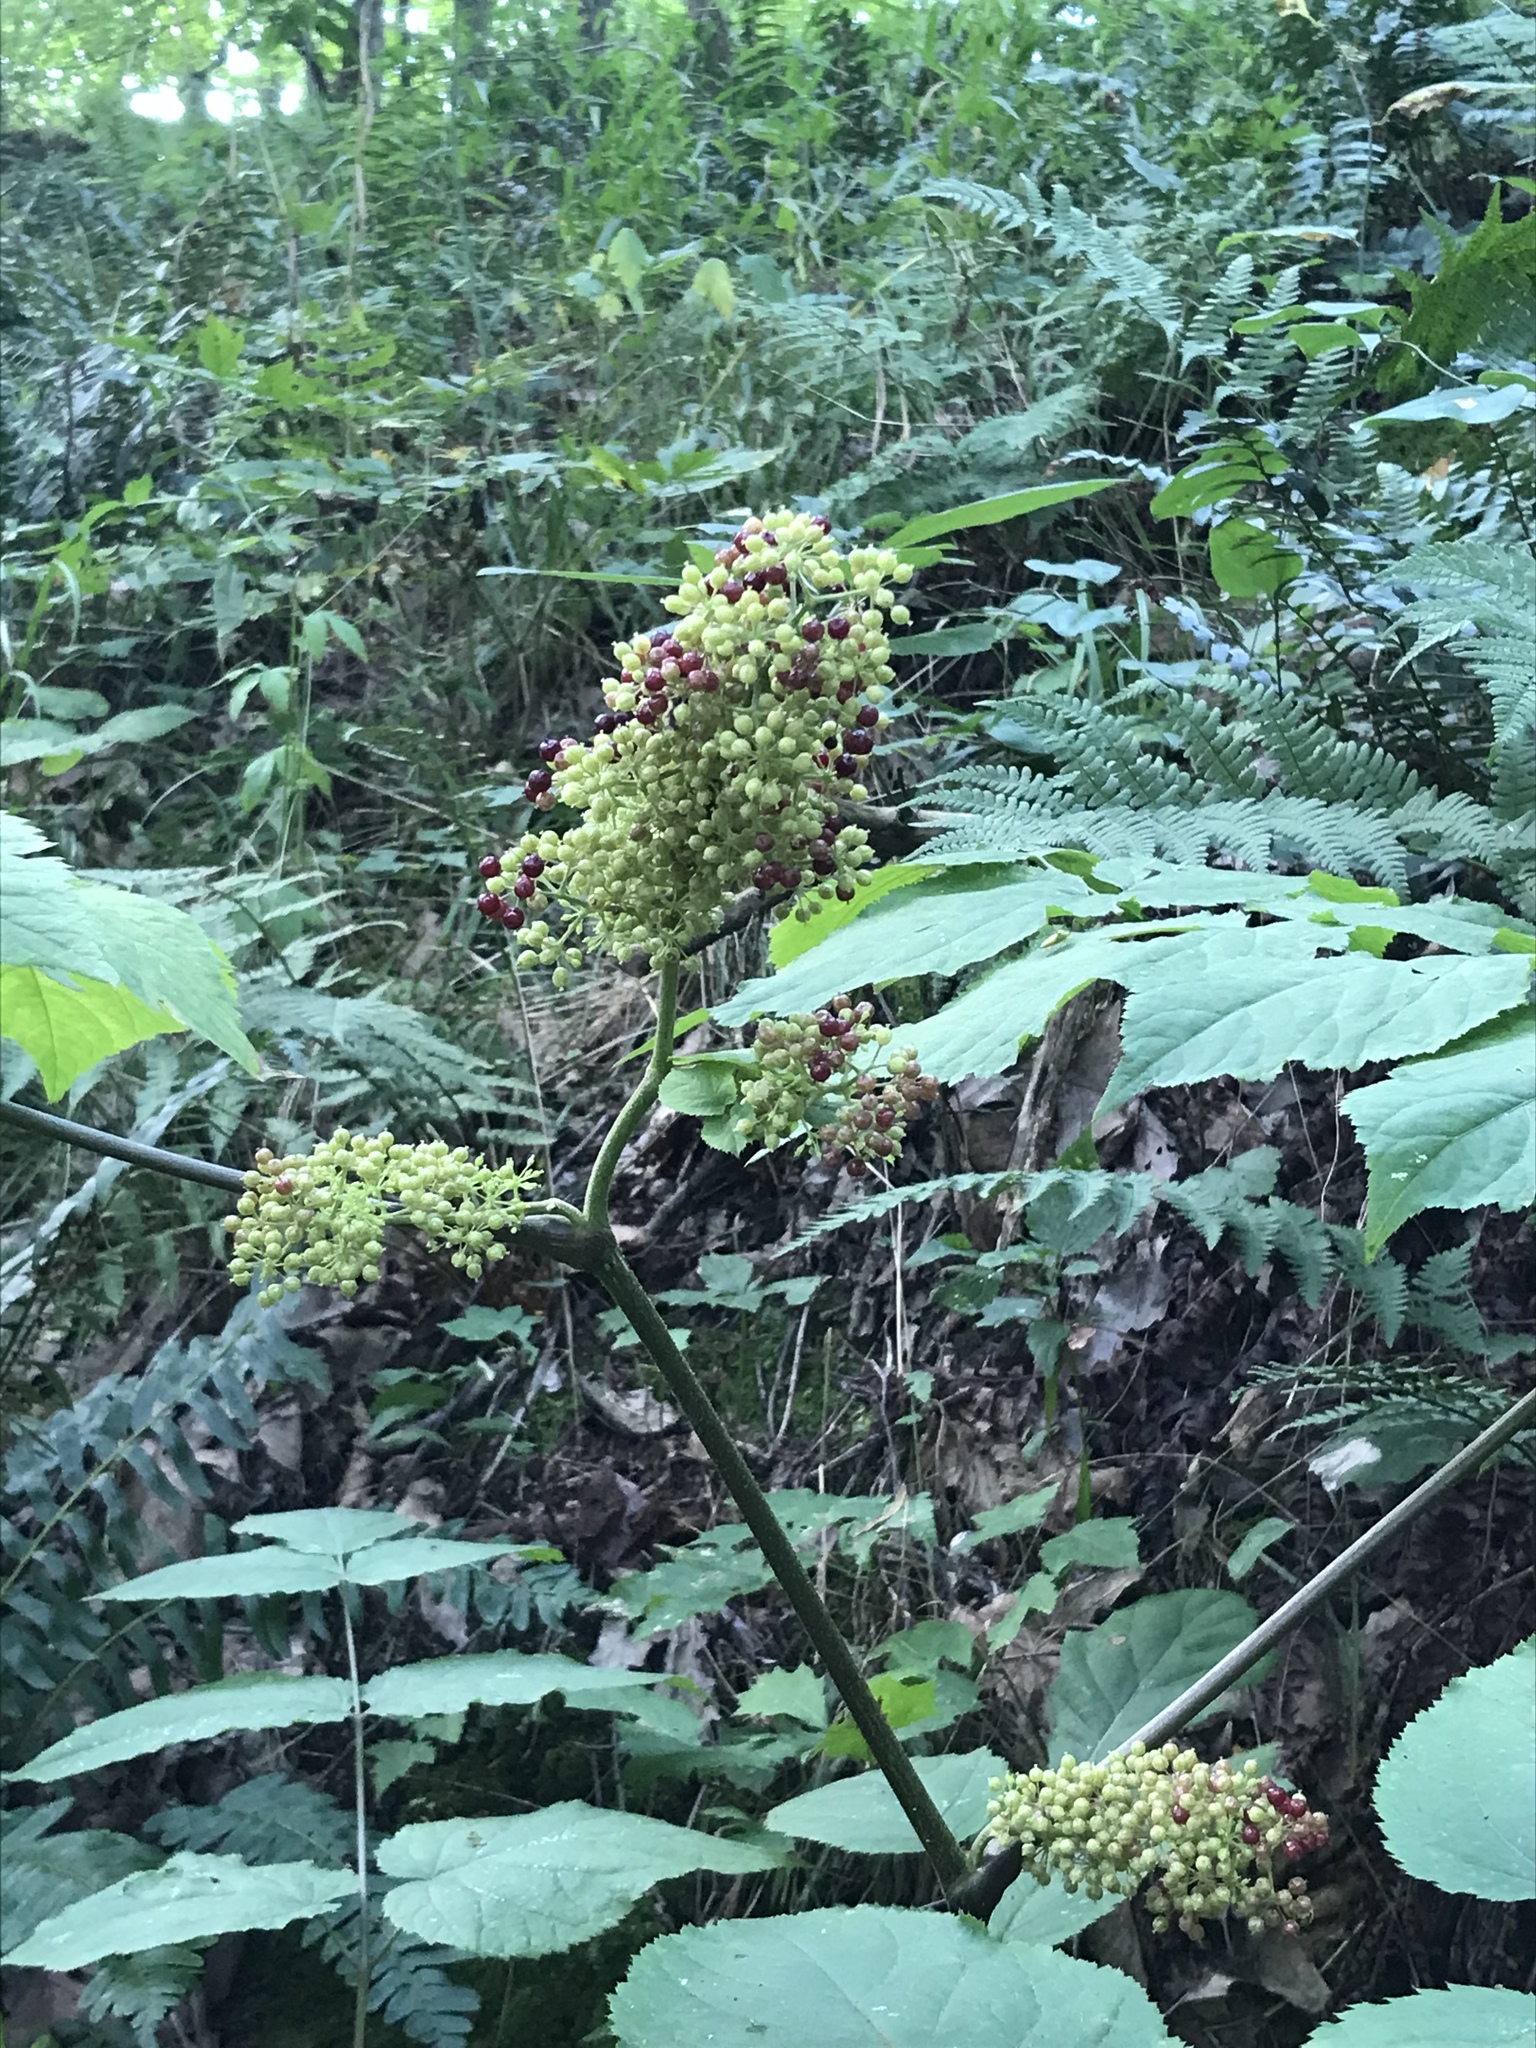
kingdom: Plantae
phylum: Tracheophyta
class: Magnoliopsida
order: Apiales
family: Araliaceae
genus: Aralia
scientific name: Aralia racemosa
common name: American-spikenard
